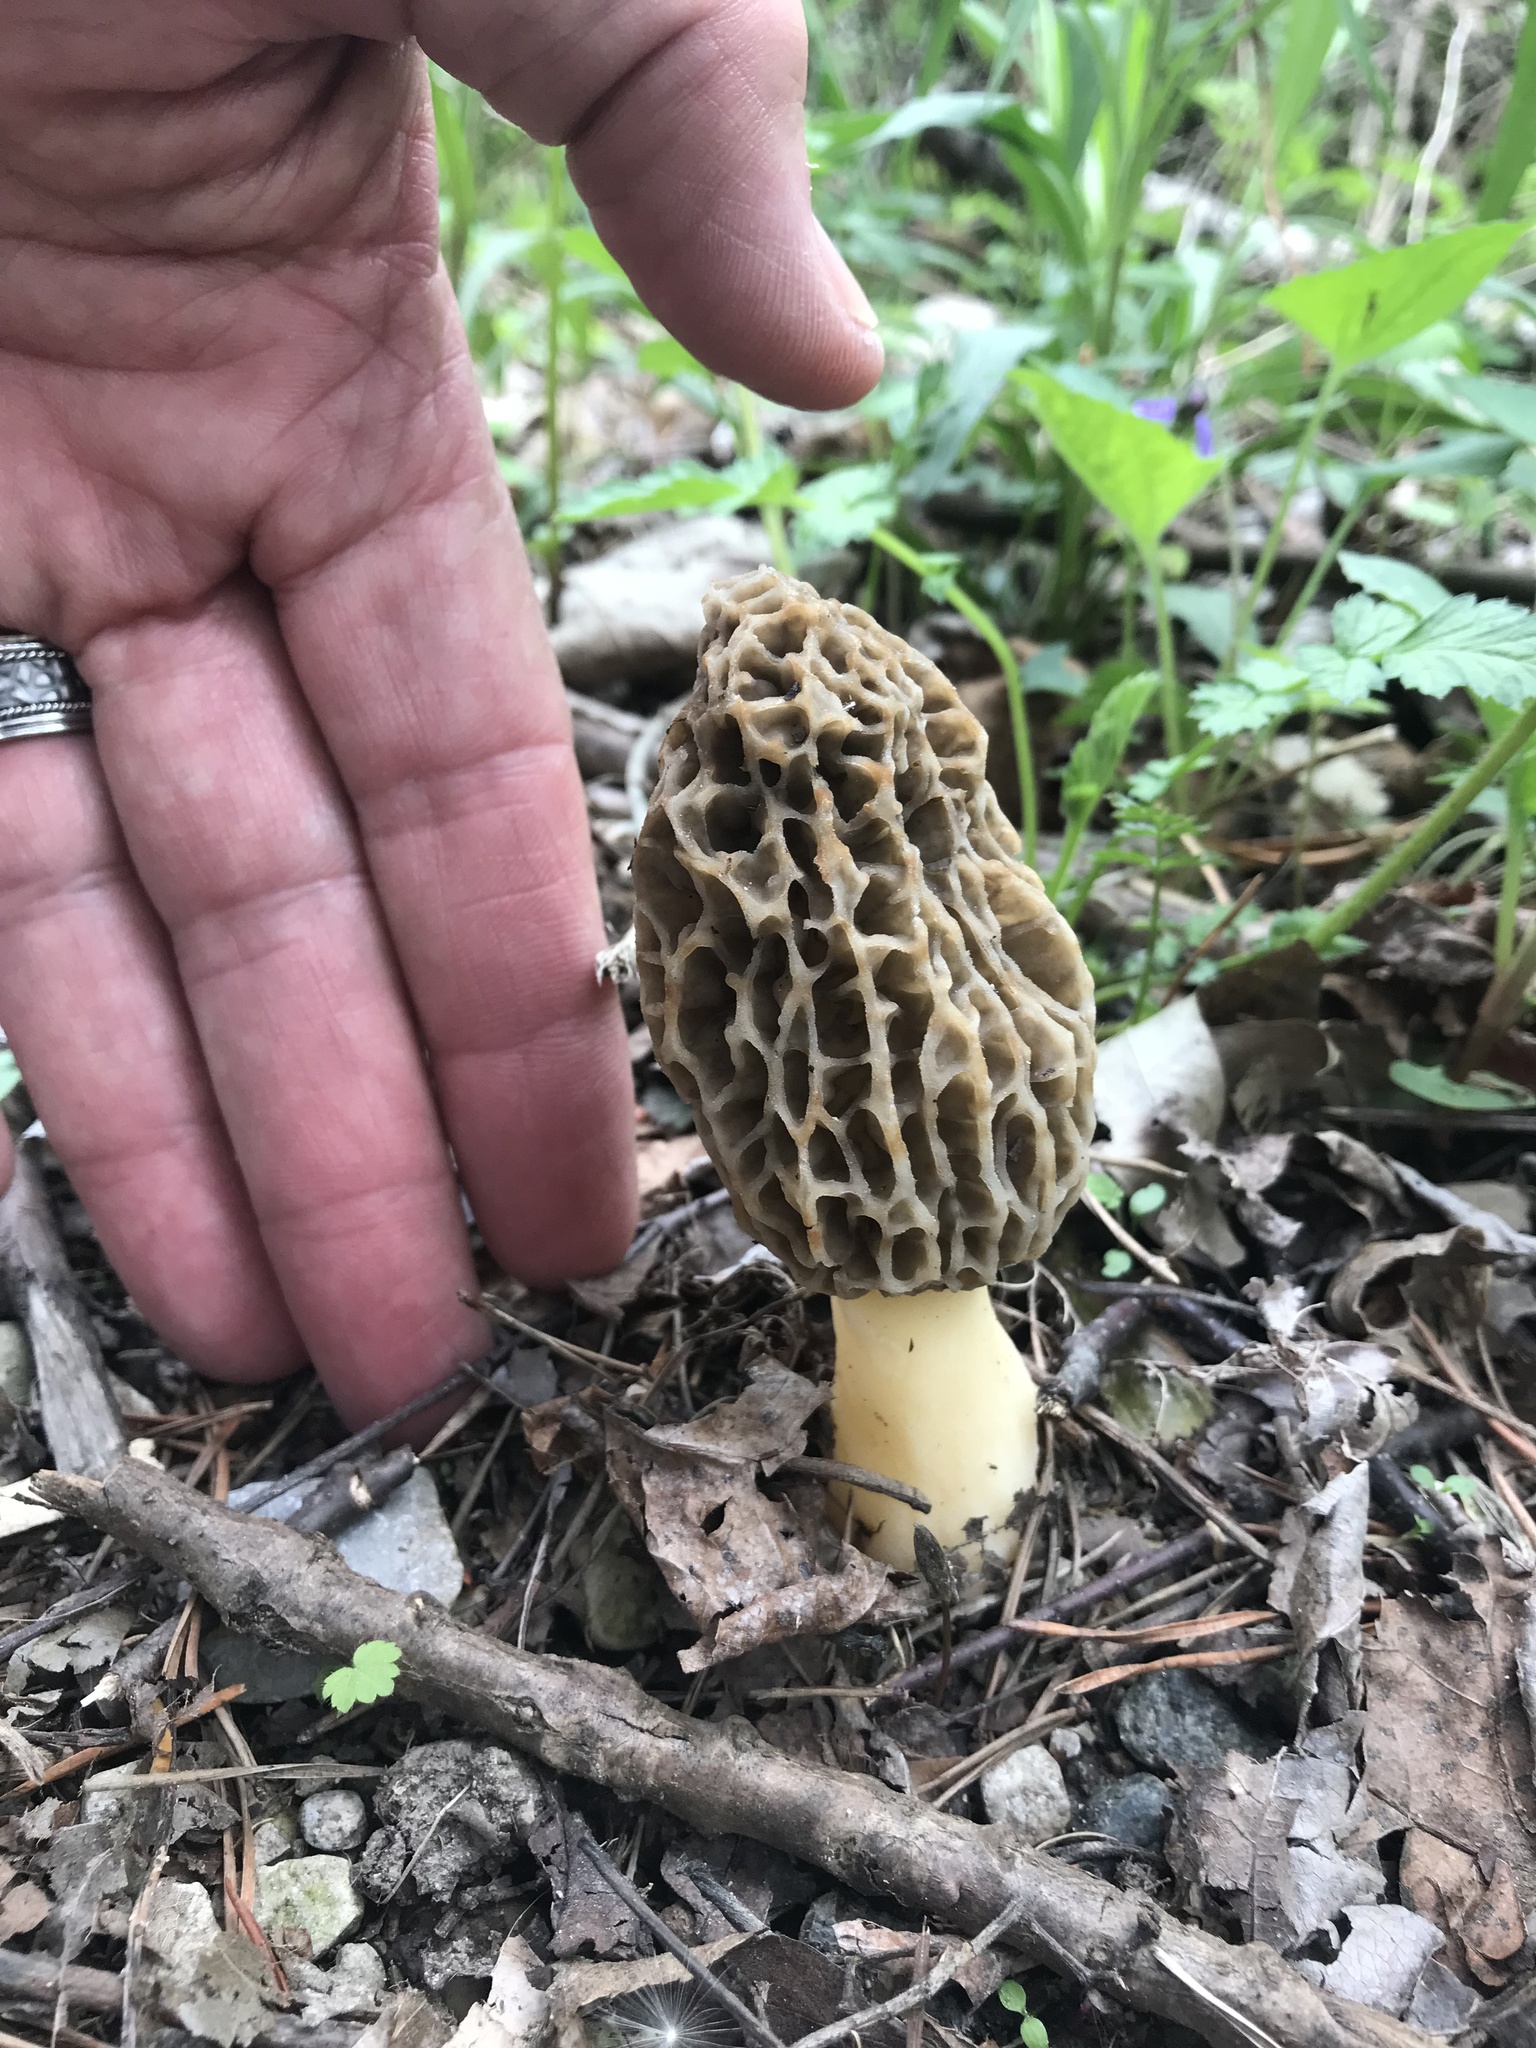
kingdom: Fungi
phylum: Ascomycota
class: Pezizomycetes
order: Pezizales
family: Morchellaceae
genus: Morchella
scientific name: Morchella americana
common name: White morel
